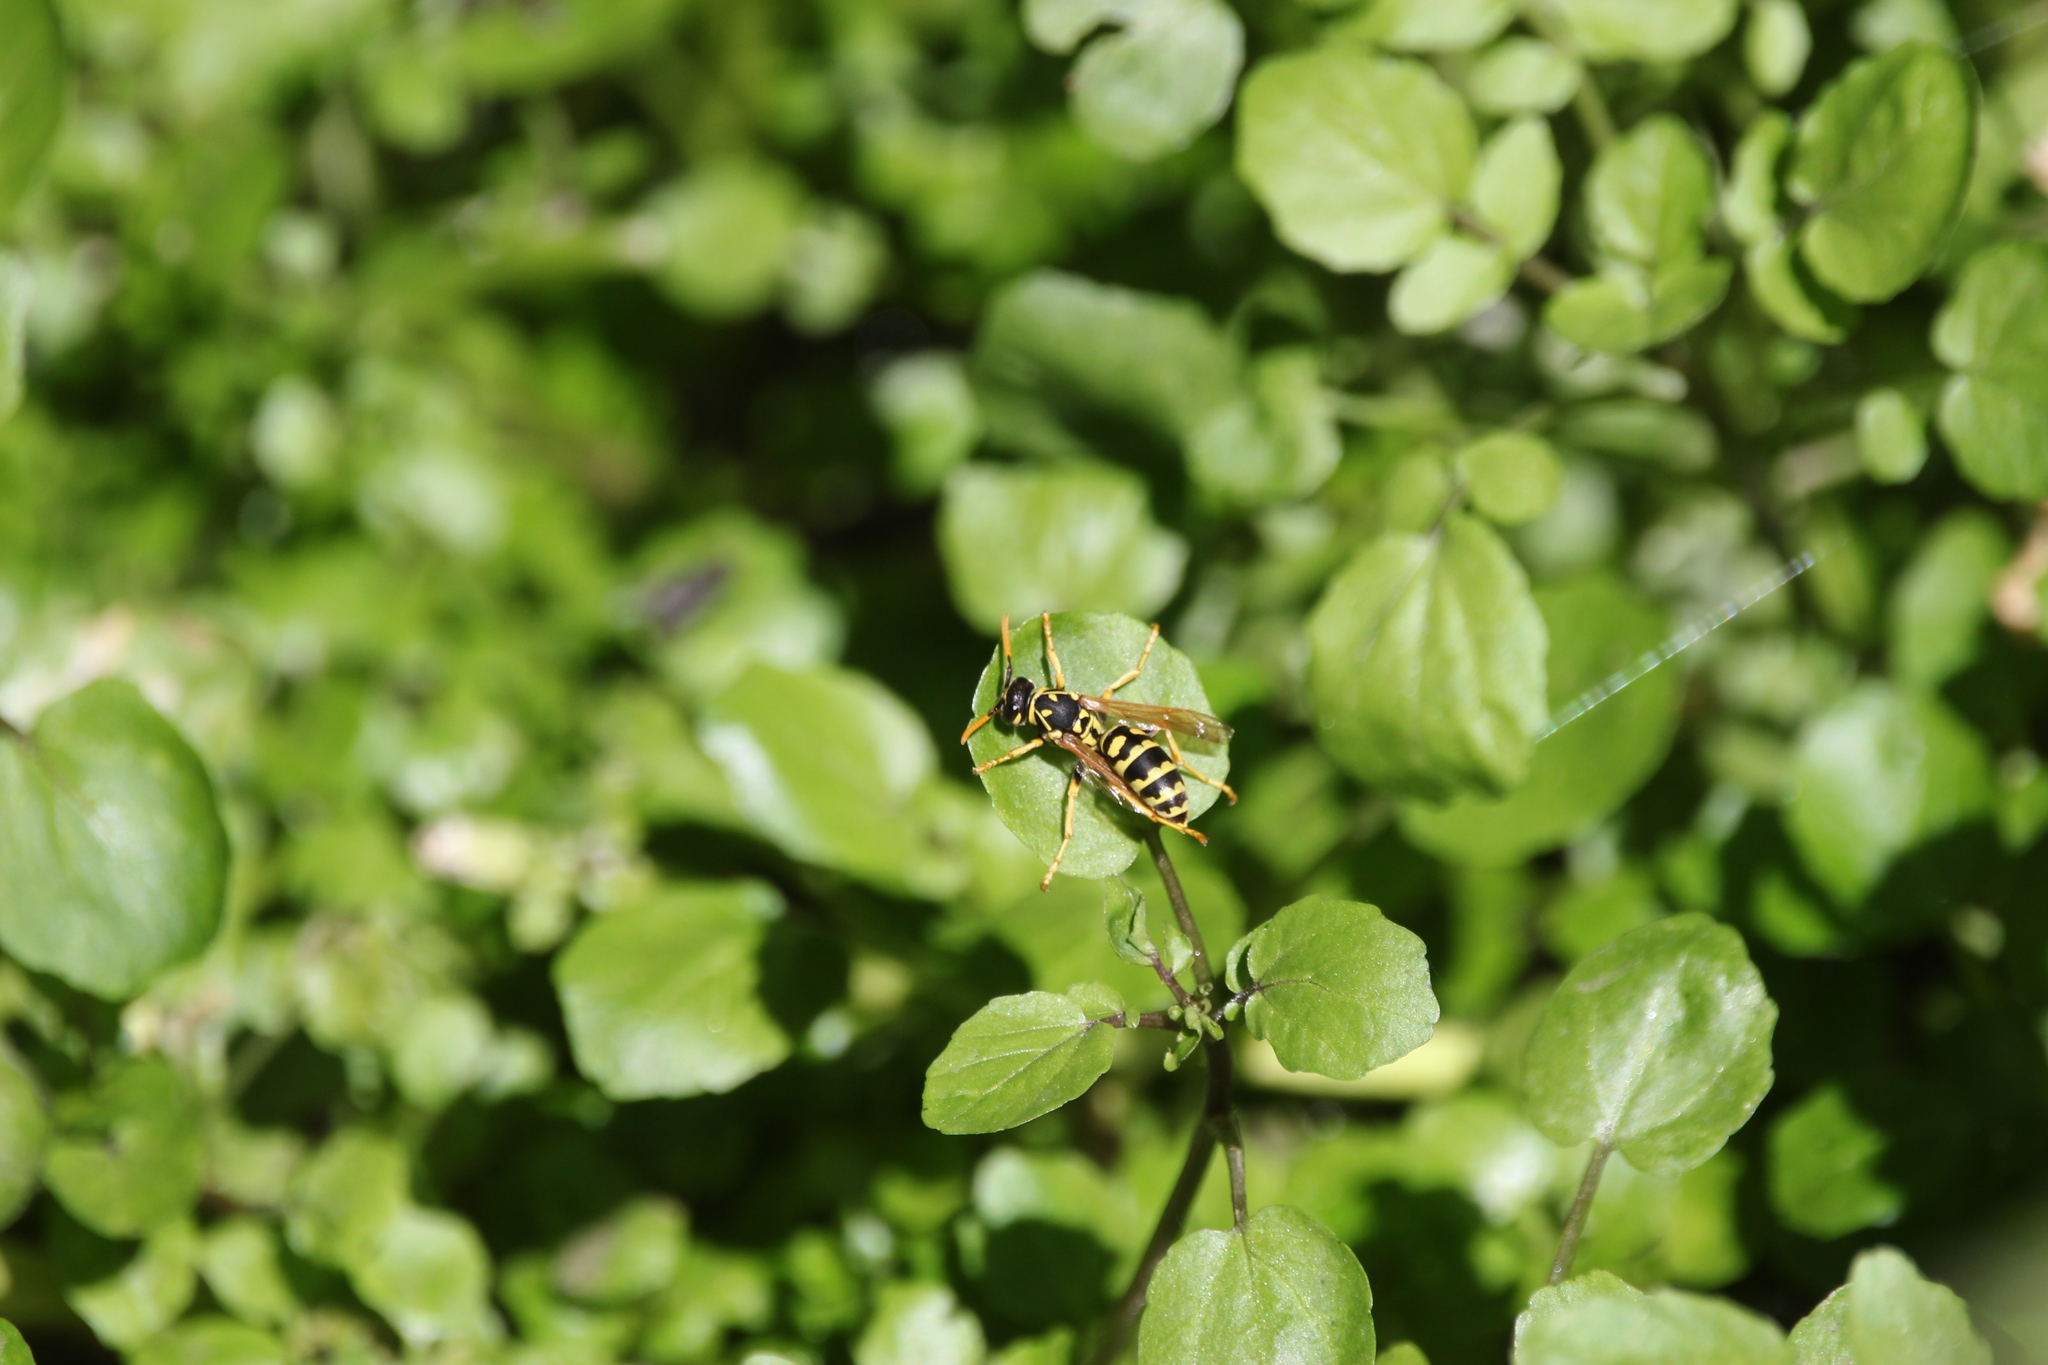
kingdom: Animalia
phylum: Arthropoda
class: Insecta
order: Hymenoptera
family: Eumenidae
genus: Polistes
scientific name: Polistes dominula
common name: Paper wasp
